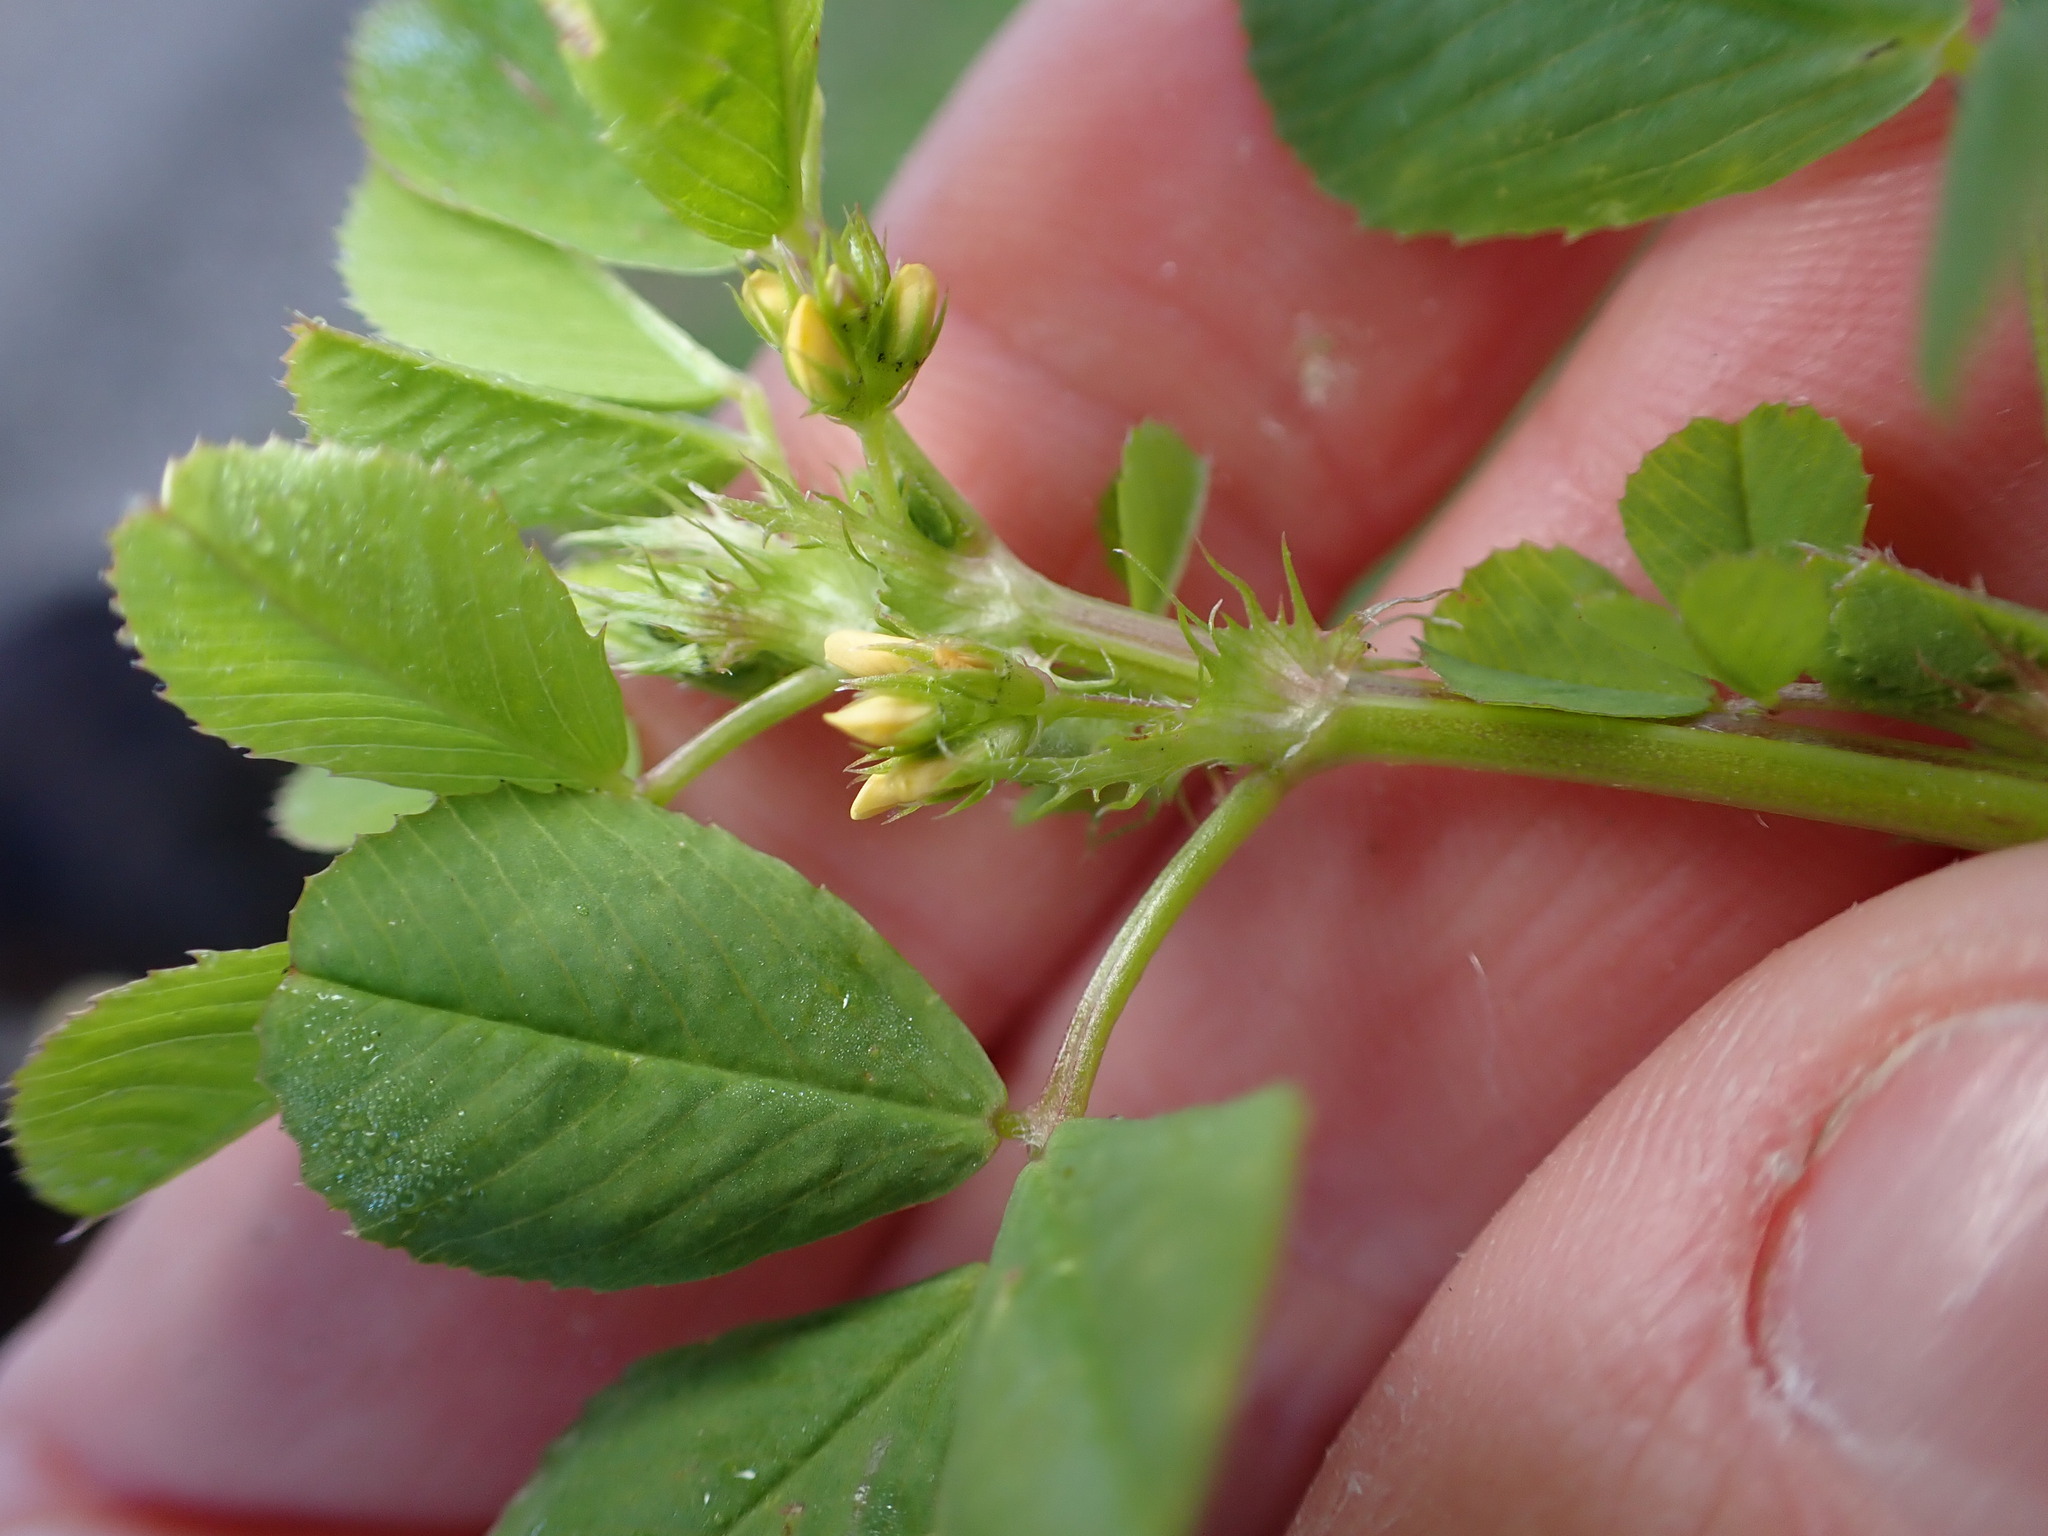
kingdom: Plantae
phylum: Tracheophyta
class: Magnoliopsida
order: Fabales
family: Fabaceae
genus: Medicago
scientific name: Medicago polymorpha
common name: Burclover
